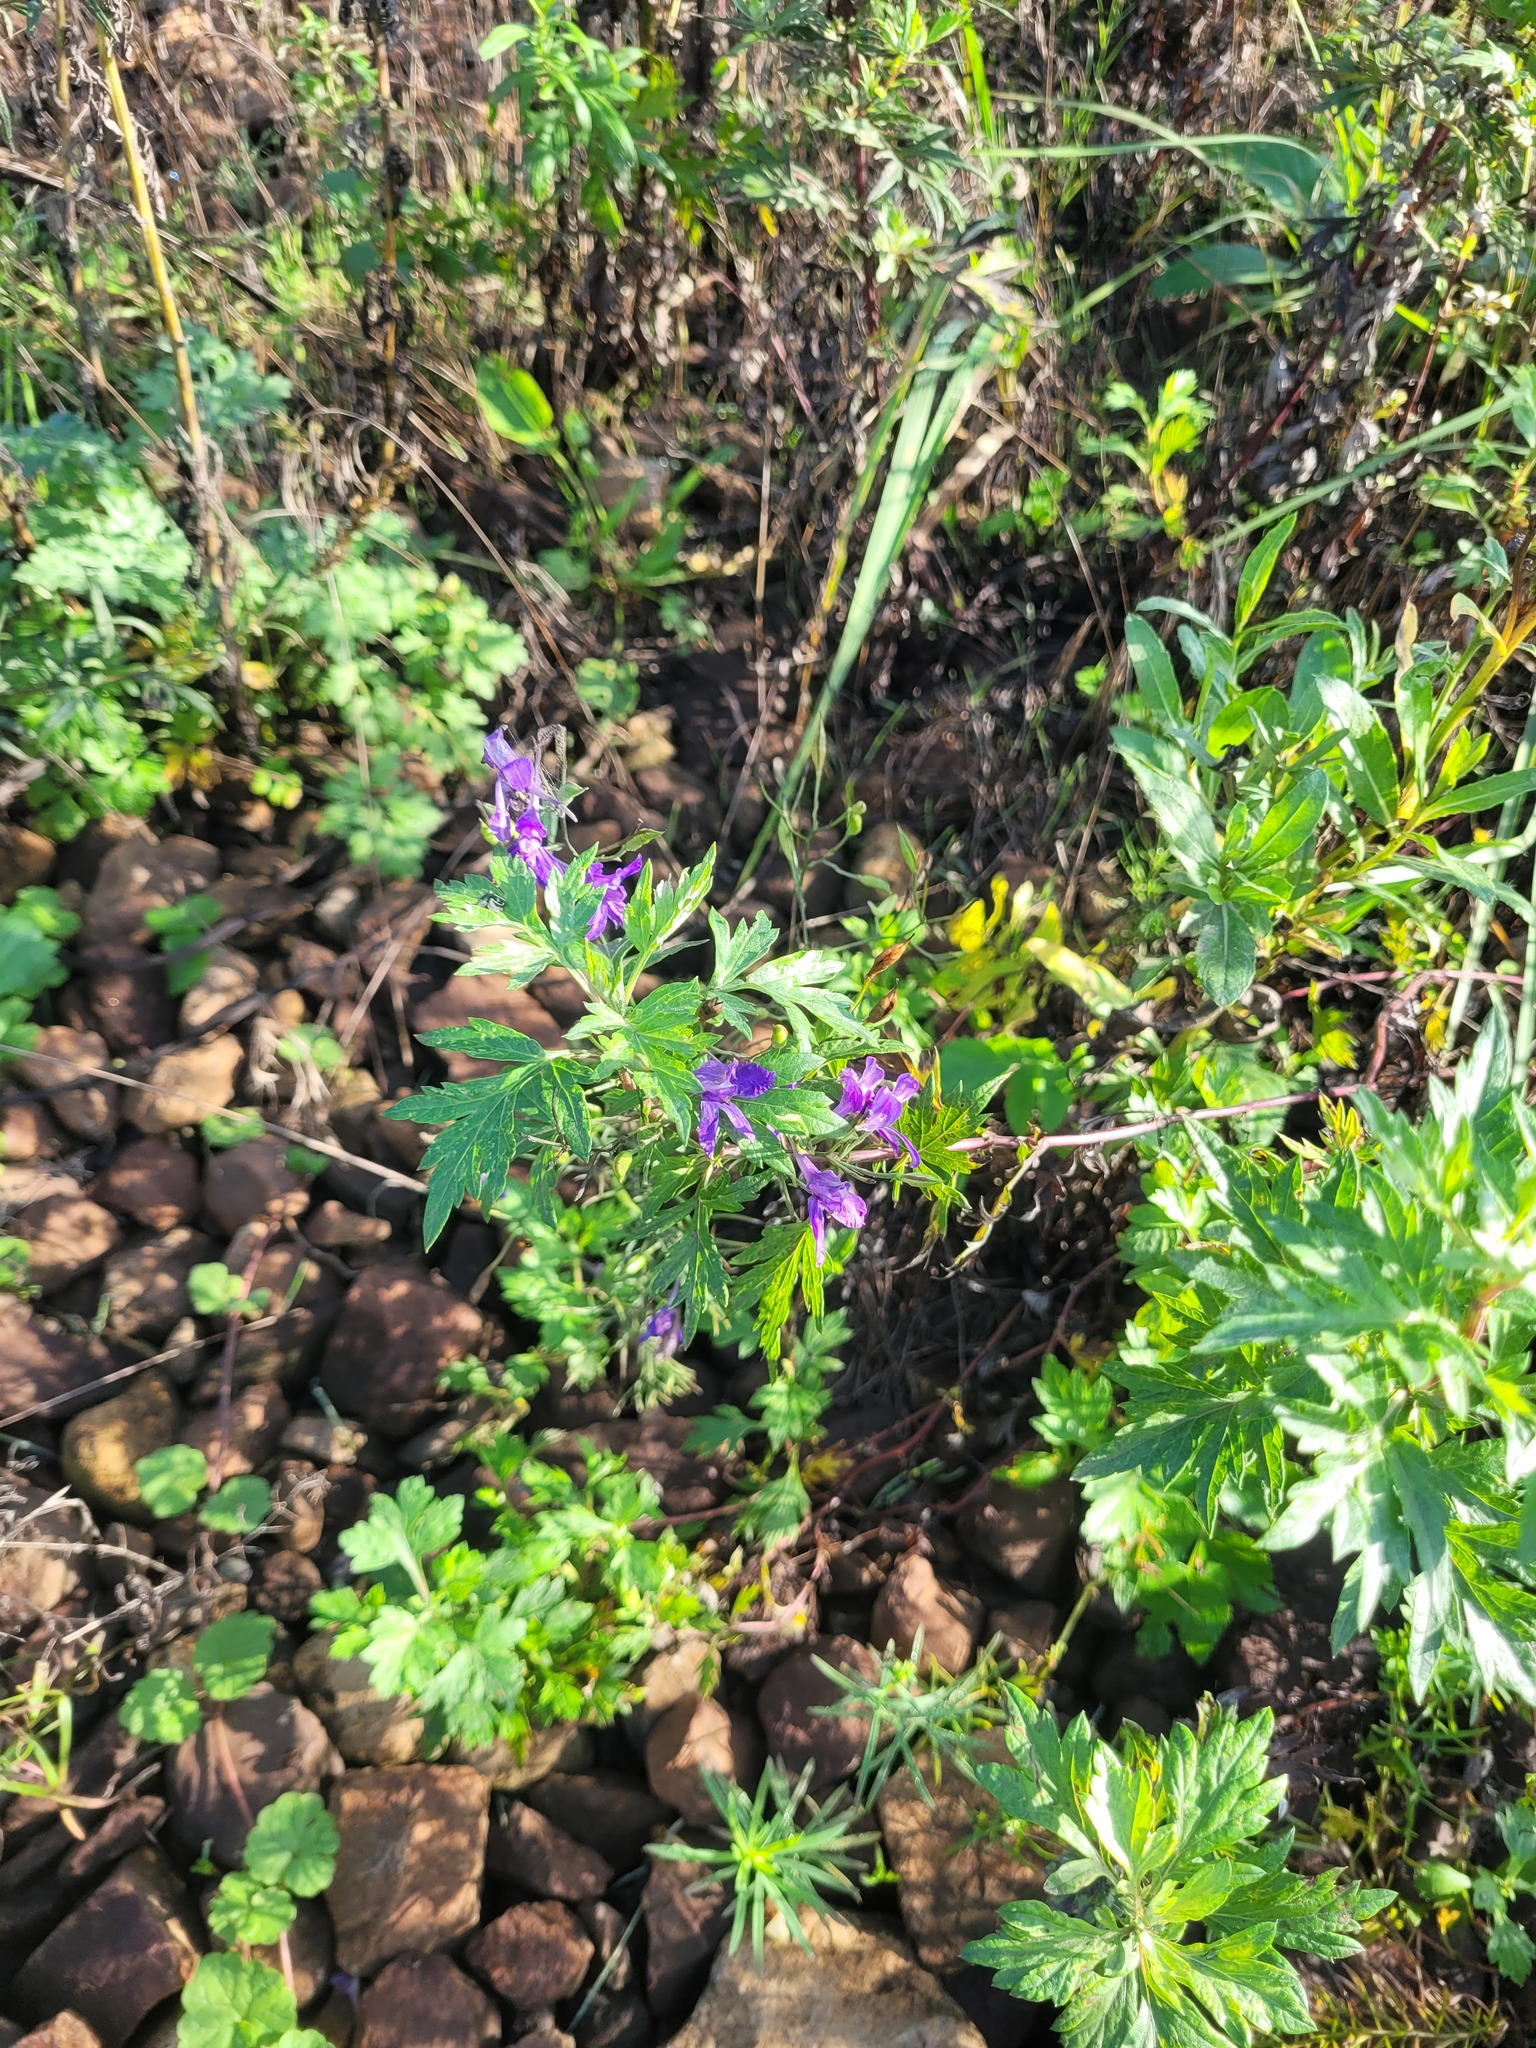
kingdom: Plantae
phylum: Tracheophyta
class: Magnoliopsida
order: Ranunculales
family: Ranunculaceae
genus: Delphinium
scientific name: Delphinium consolida
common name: Branching larkspur
